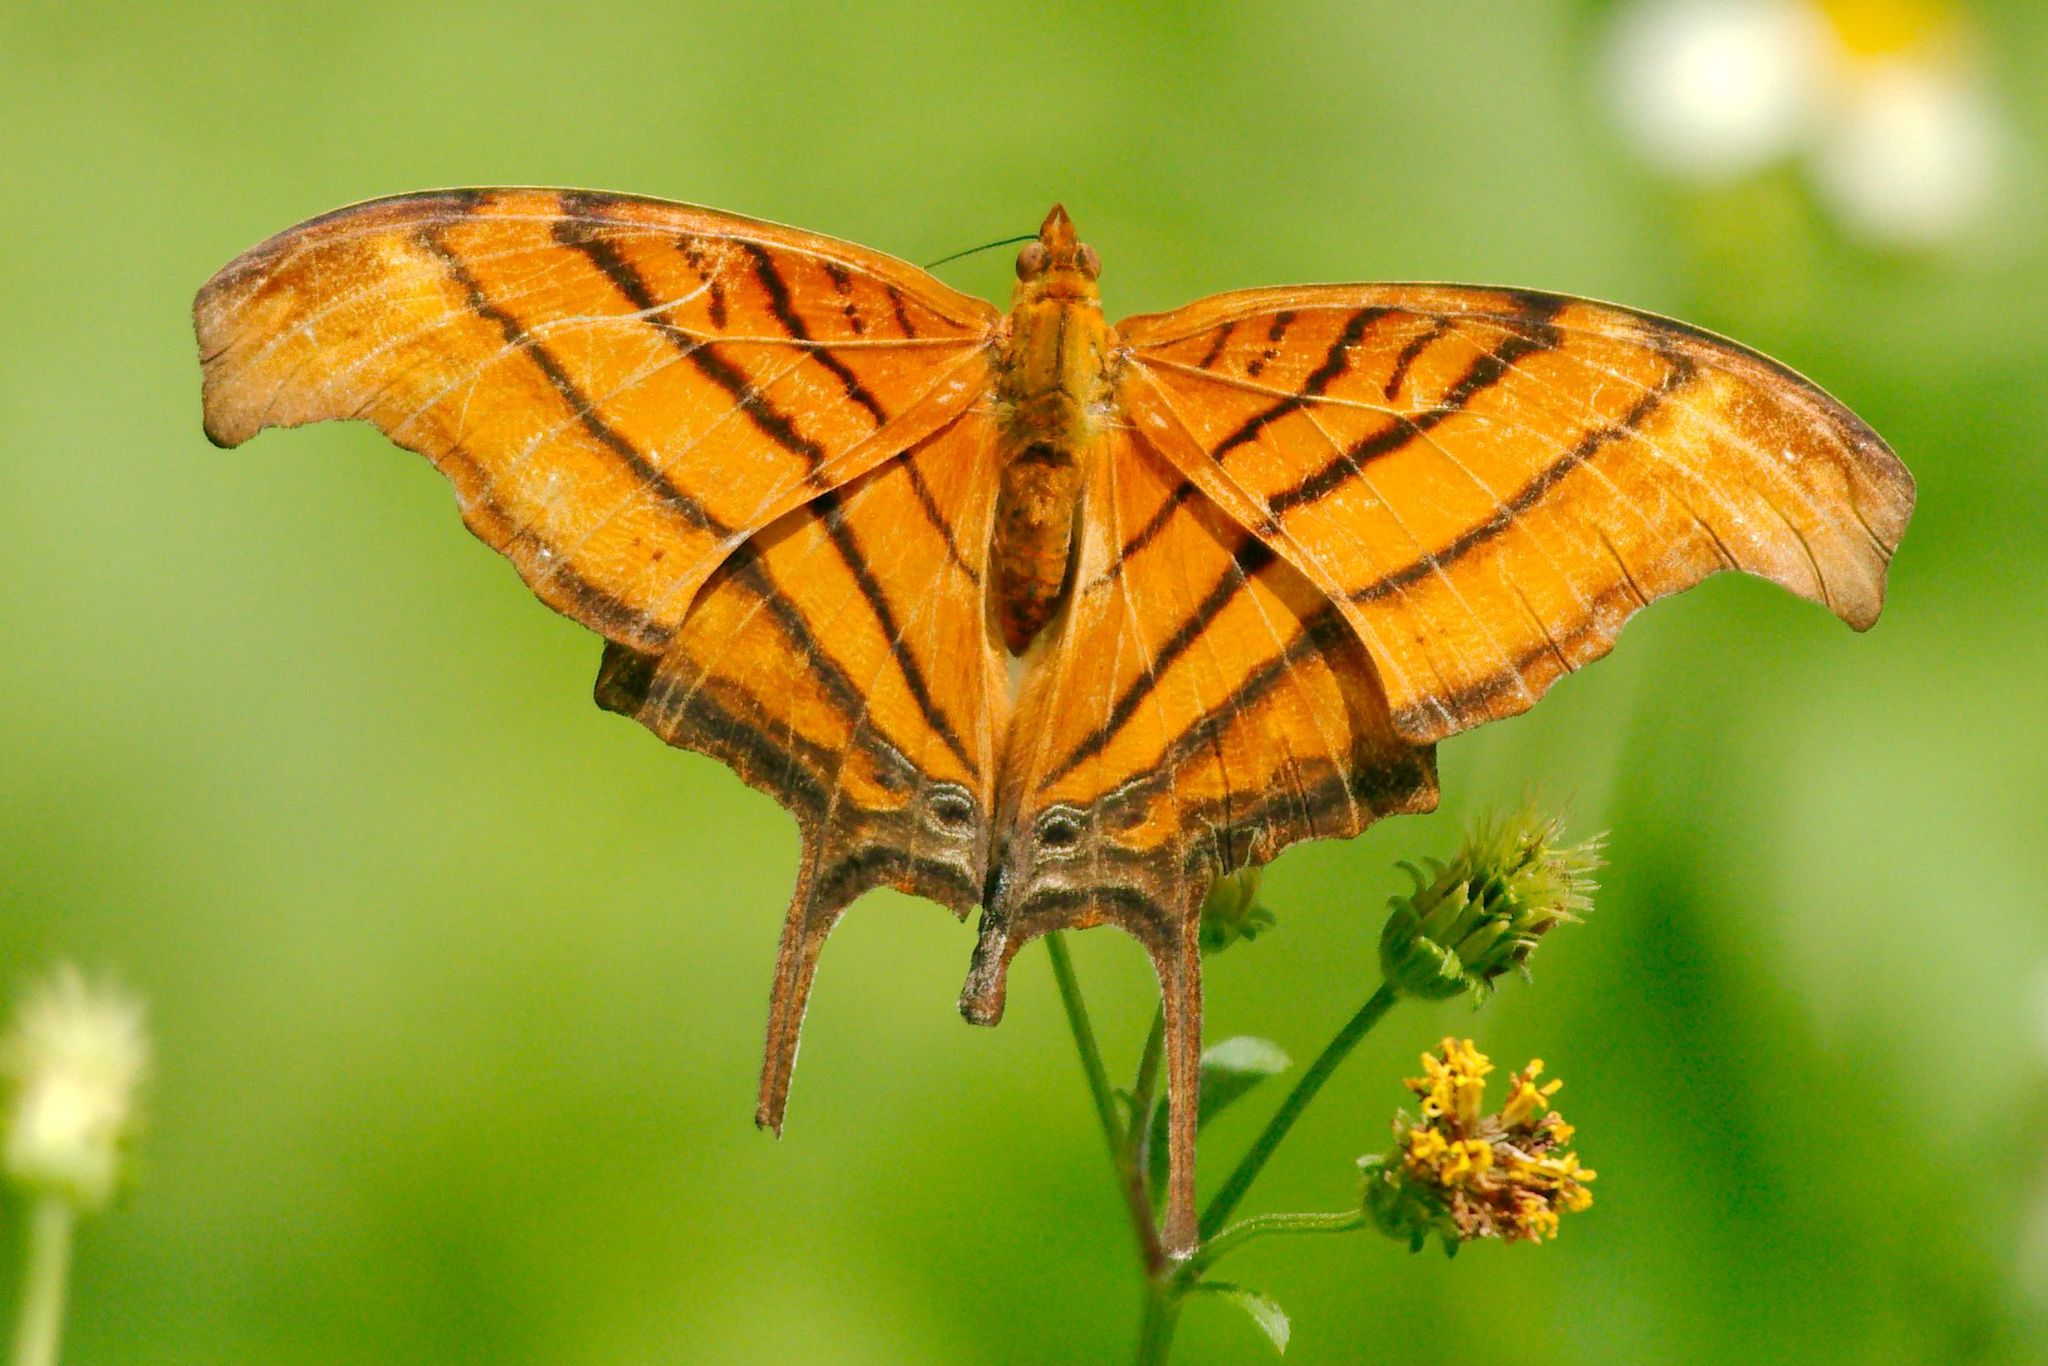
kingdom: Animalia
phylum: Arthropoda
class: Insecta
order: Lepidoptera
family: Nymphalidae
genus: Marpesia
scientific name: Marpesia petreus
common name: Red dagger wing
